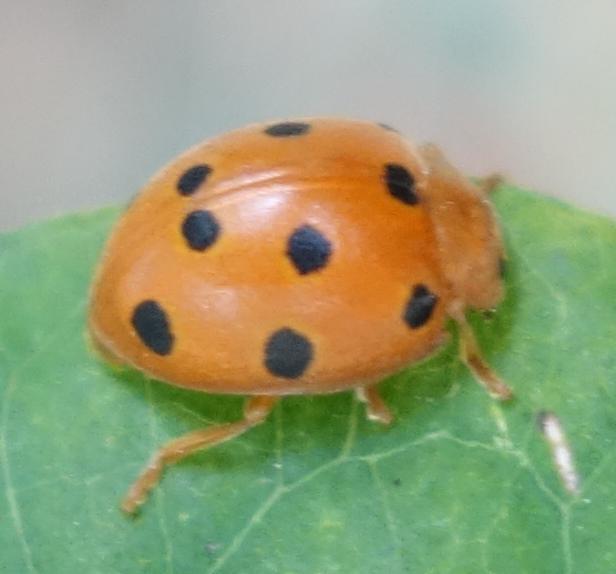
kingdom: Animalia
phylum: Arthropoda
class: Insecta
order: Coleoptera
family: Coccinellidae
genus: Henosepilachna
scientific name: Henosepilachna argus
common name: Bryony ladybird
